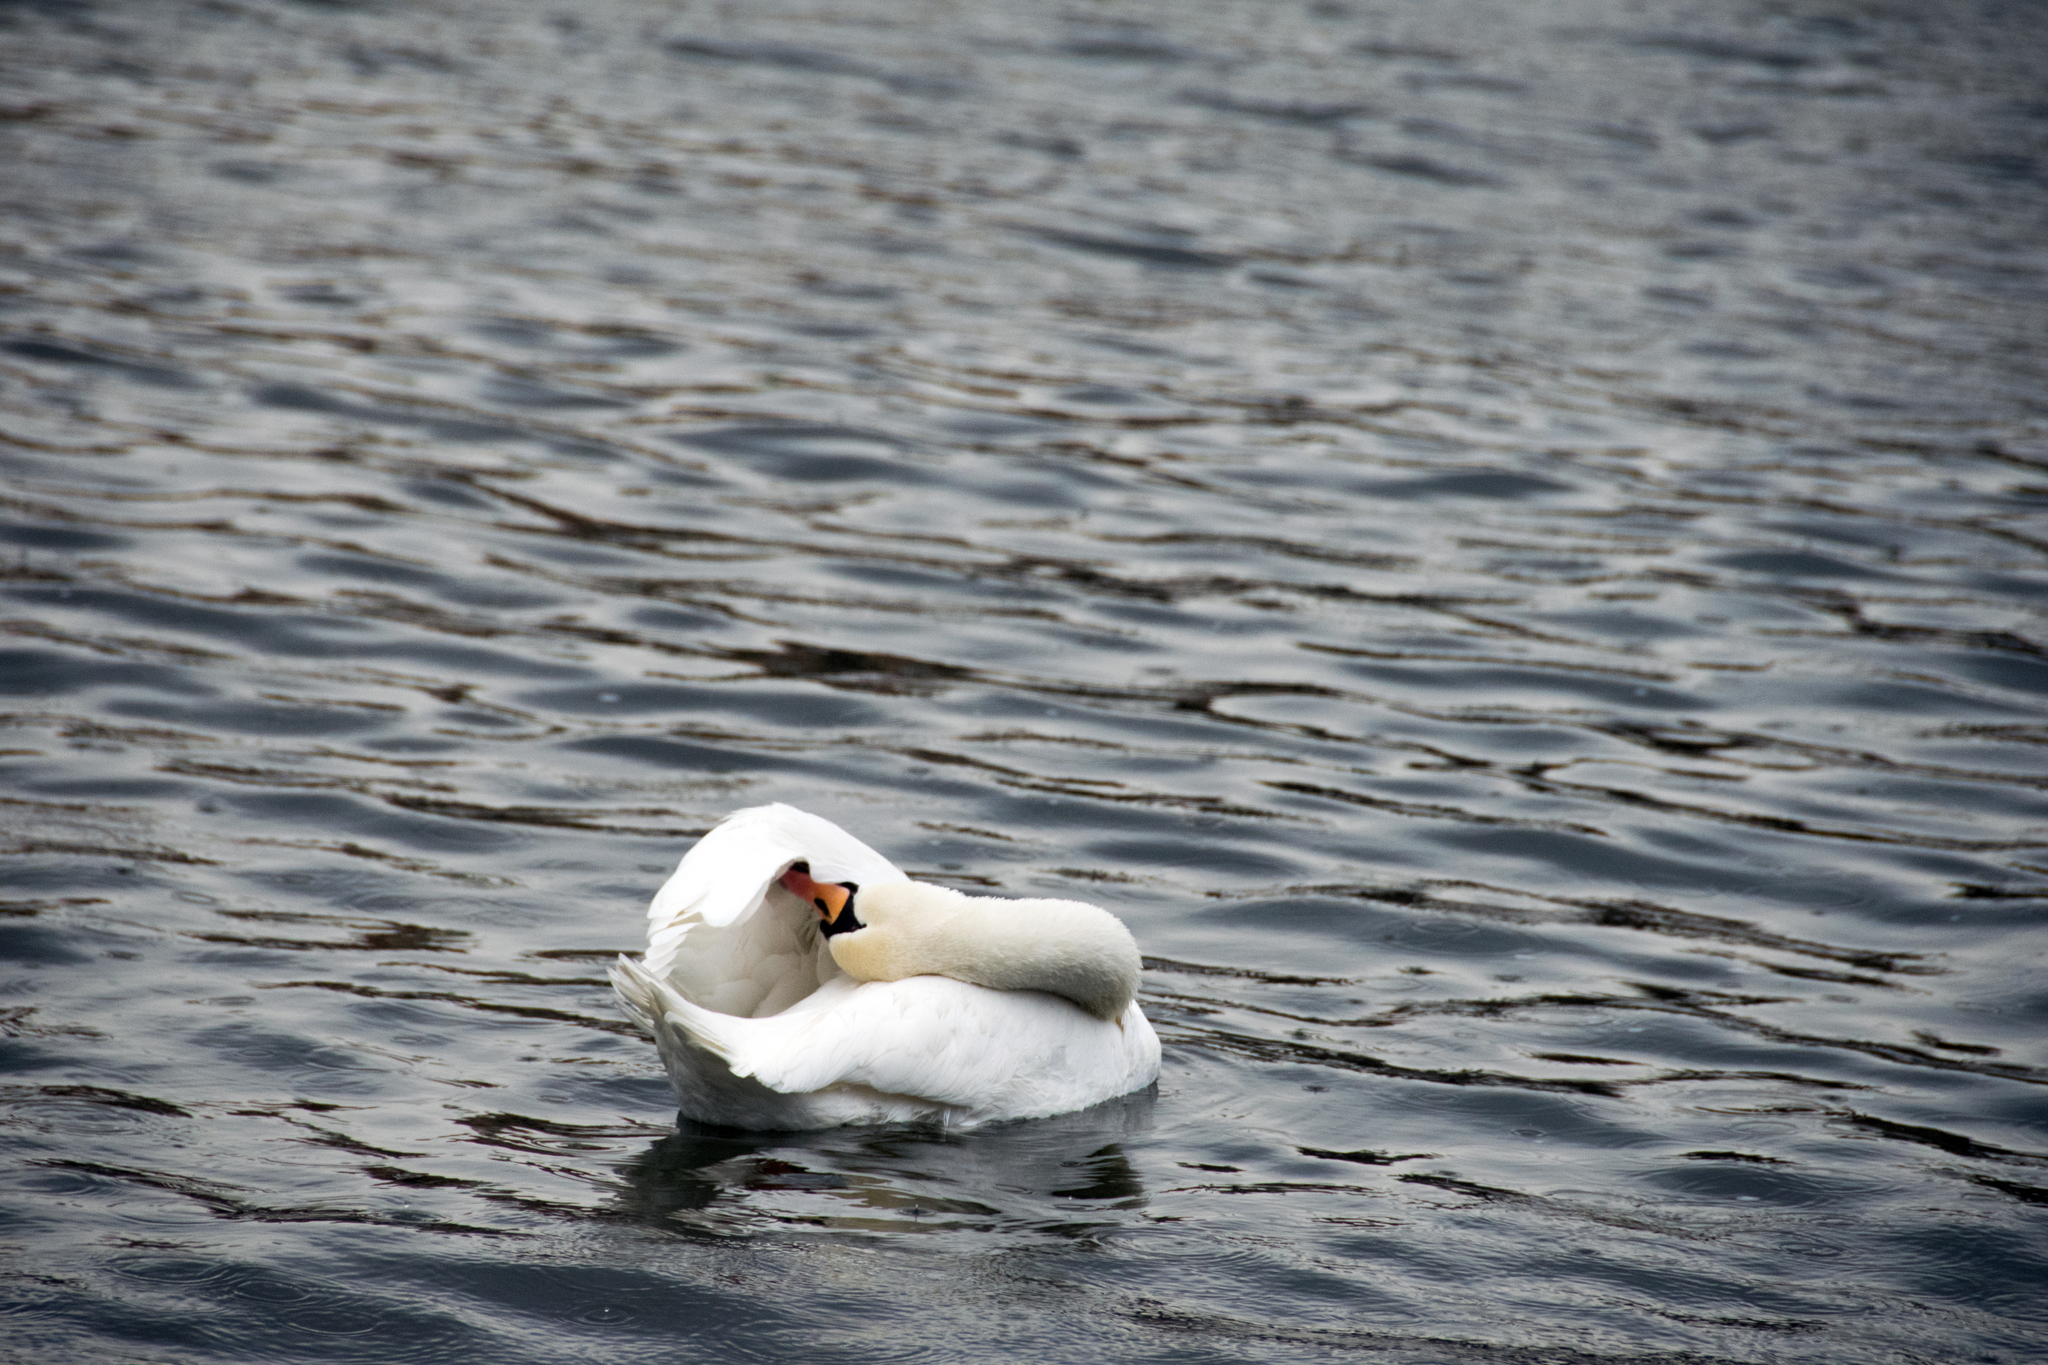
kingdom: Animalia
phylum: Chordata
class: Aves
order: Anseriformes
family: Anatidae
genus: Cygnus
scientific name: Cygnus olor
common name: Mute swan
